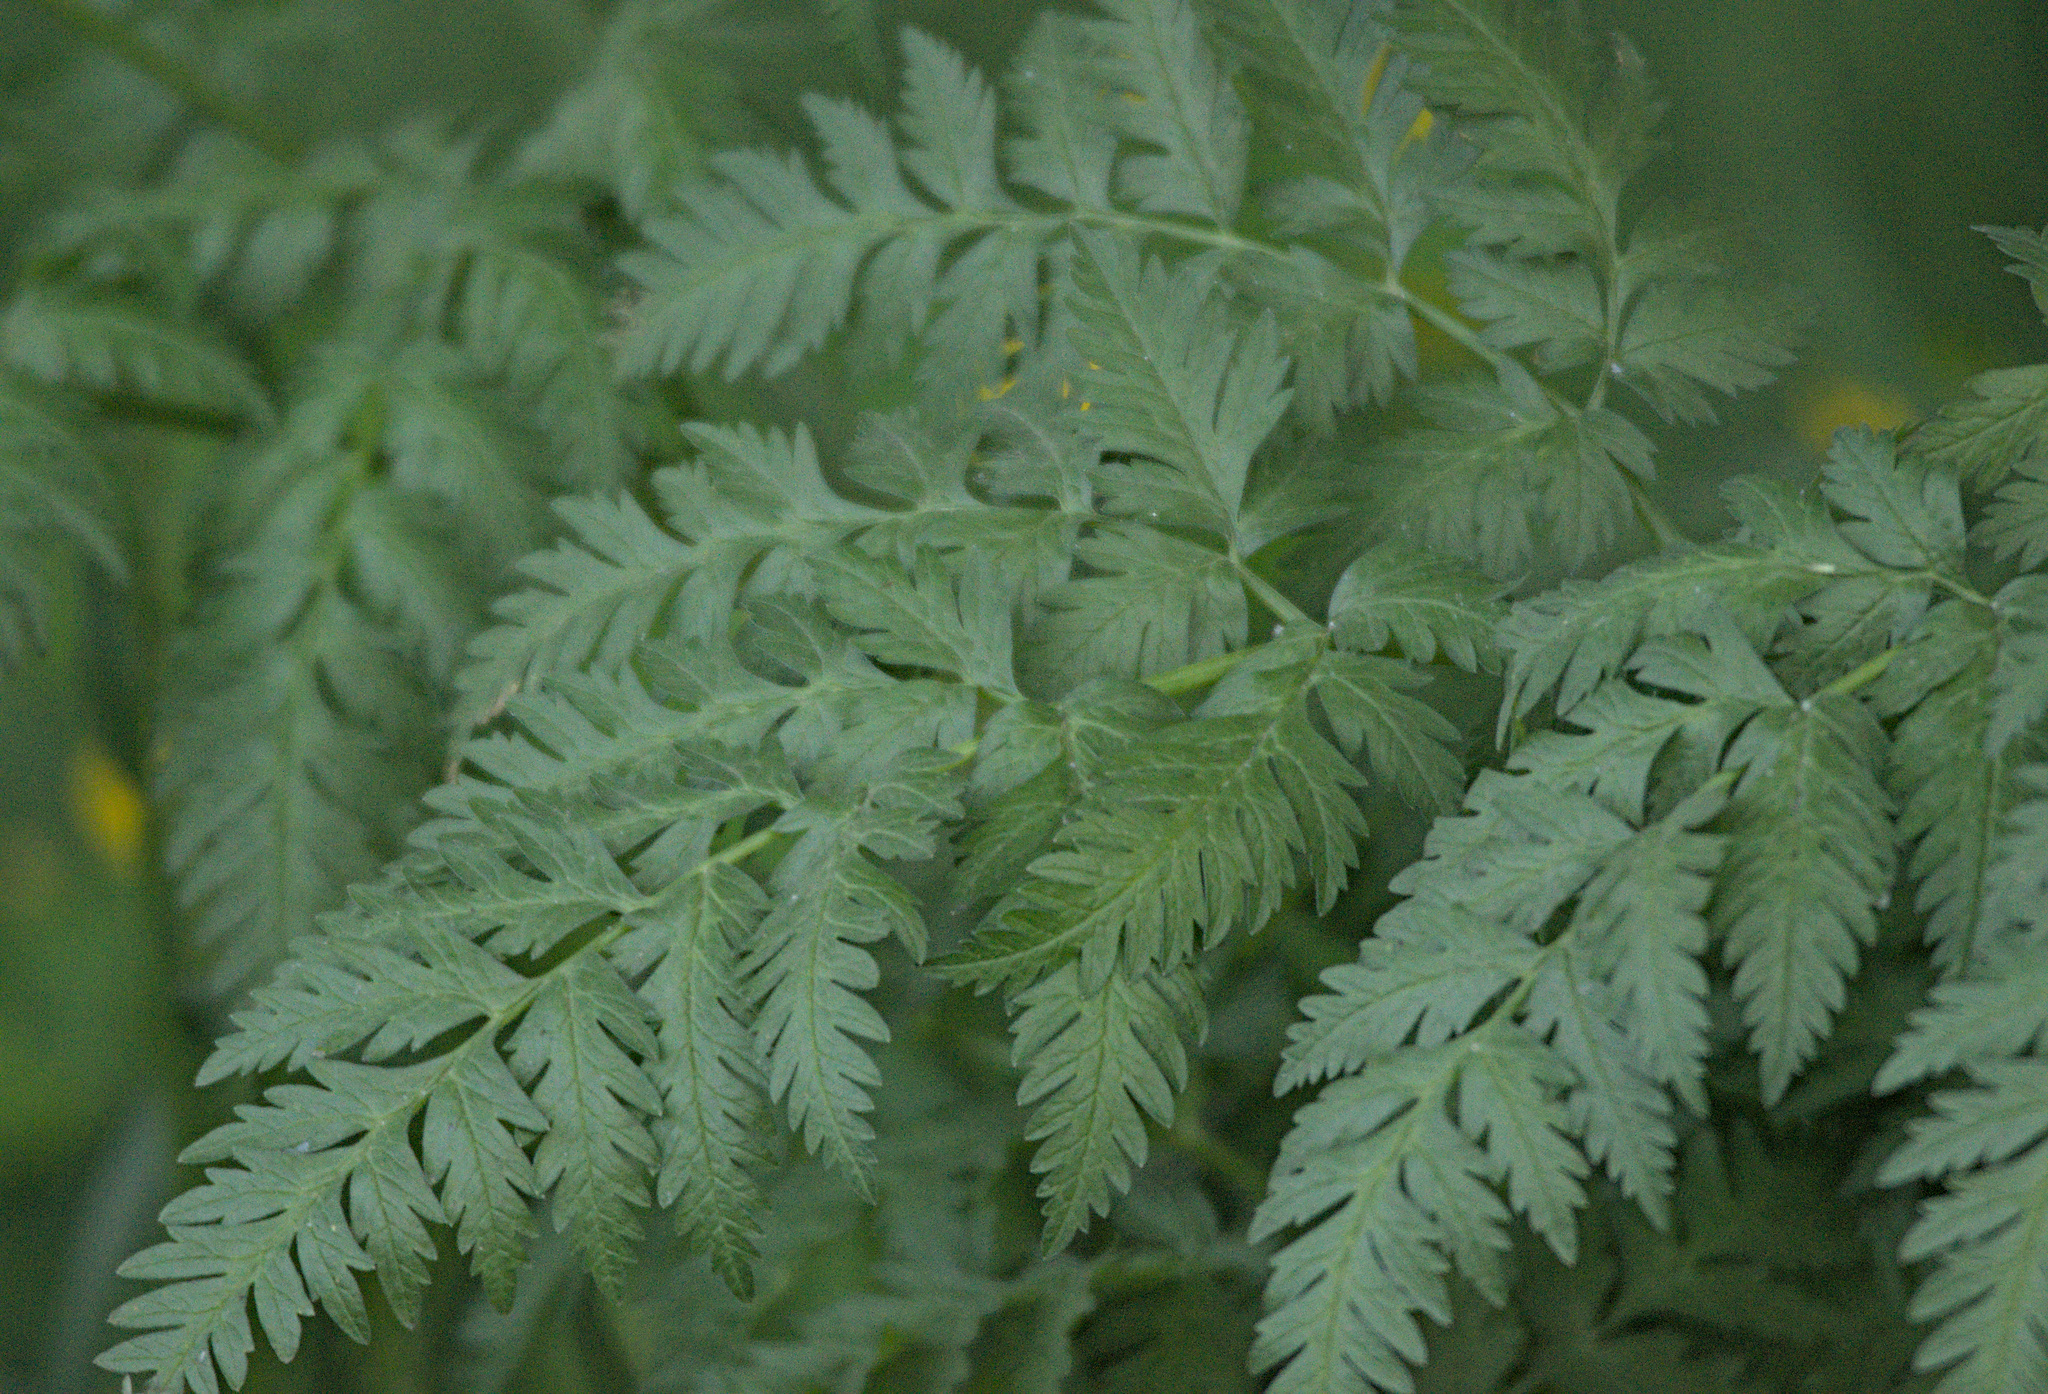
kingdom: Plantae
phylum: Tracheophyta
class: Magnoliopsida
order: Apiales
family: Apiaceae
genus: Anthriscus
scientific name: Anthriscus sylvestris
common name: Cow parsley
